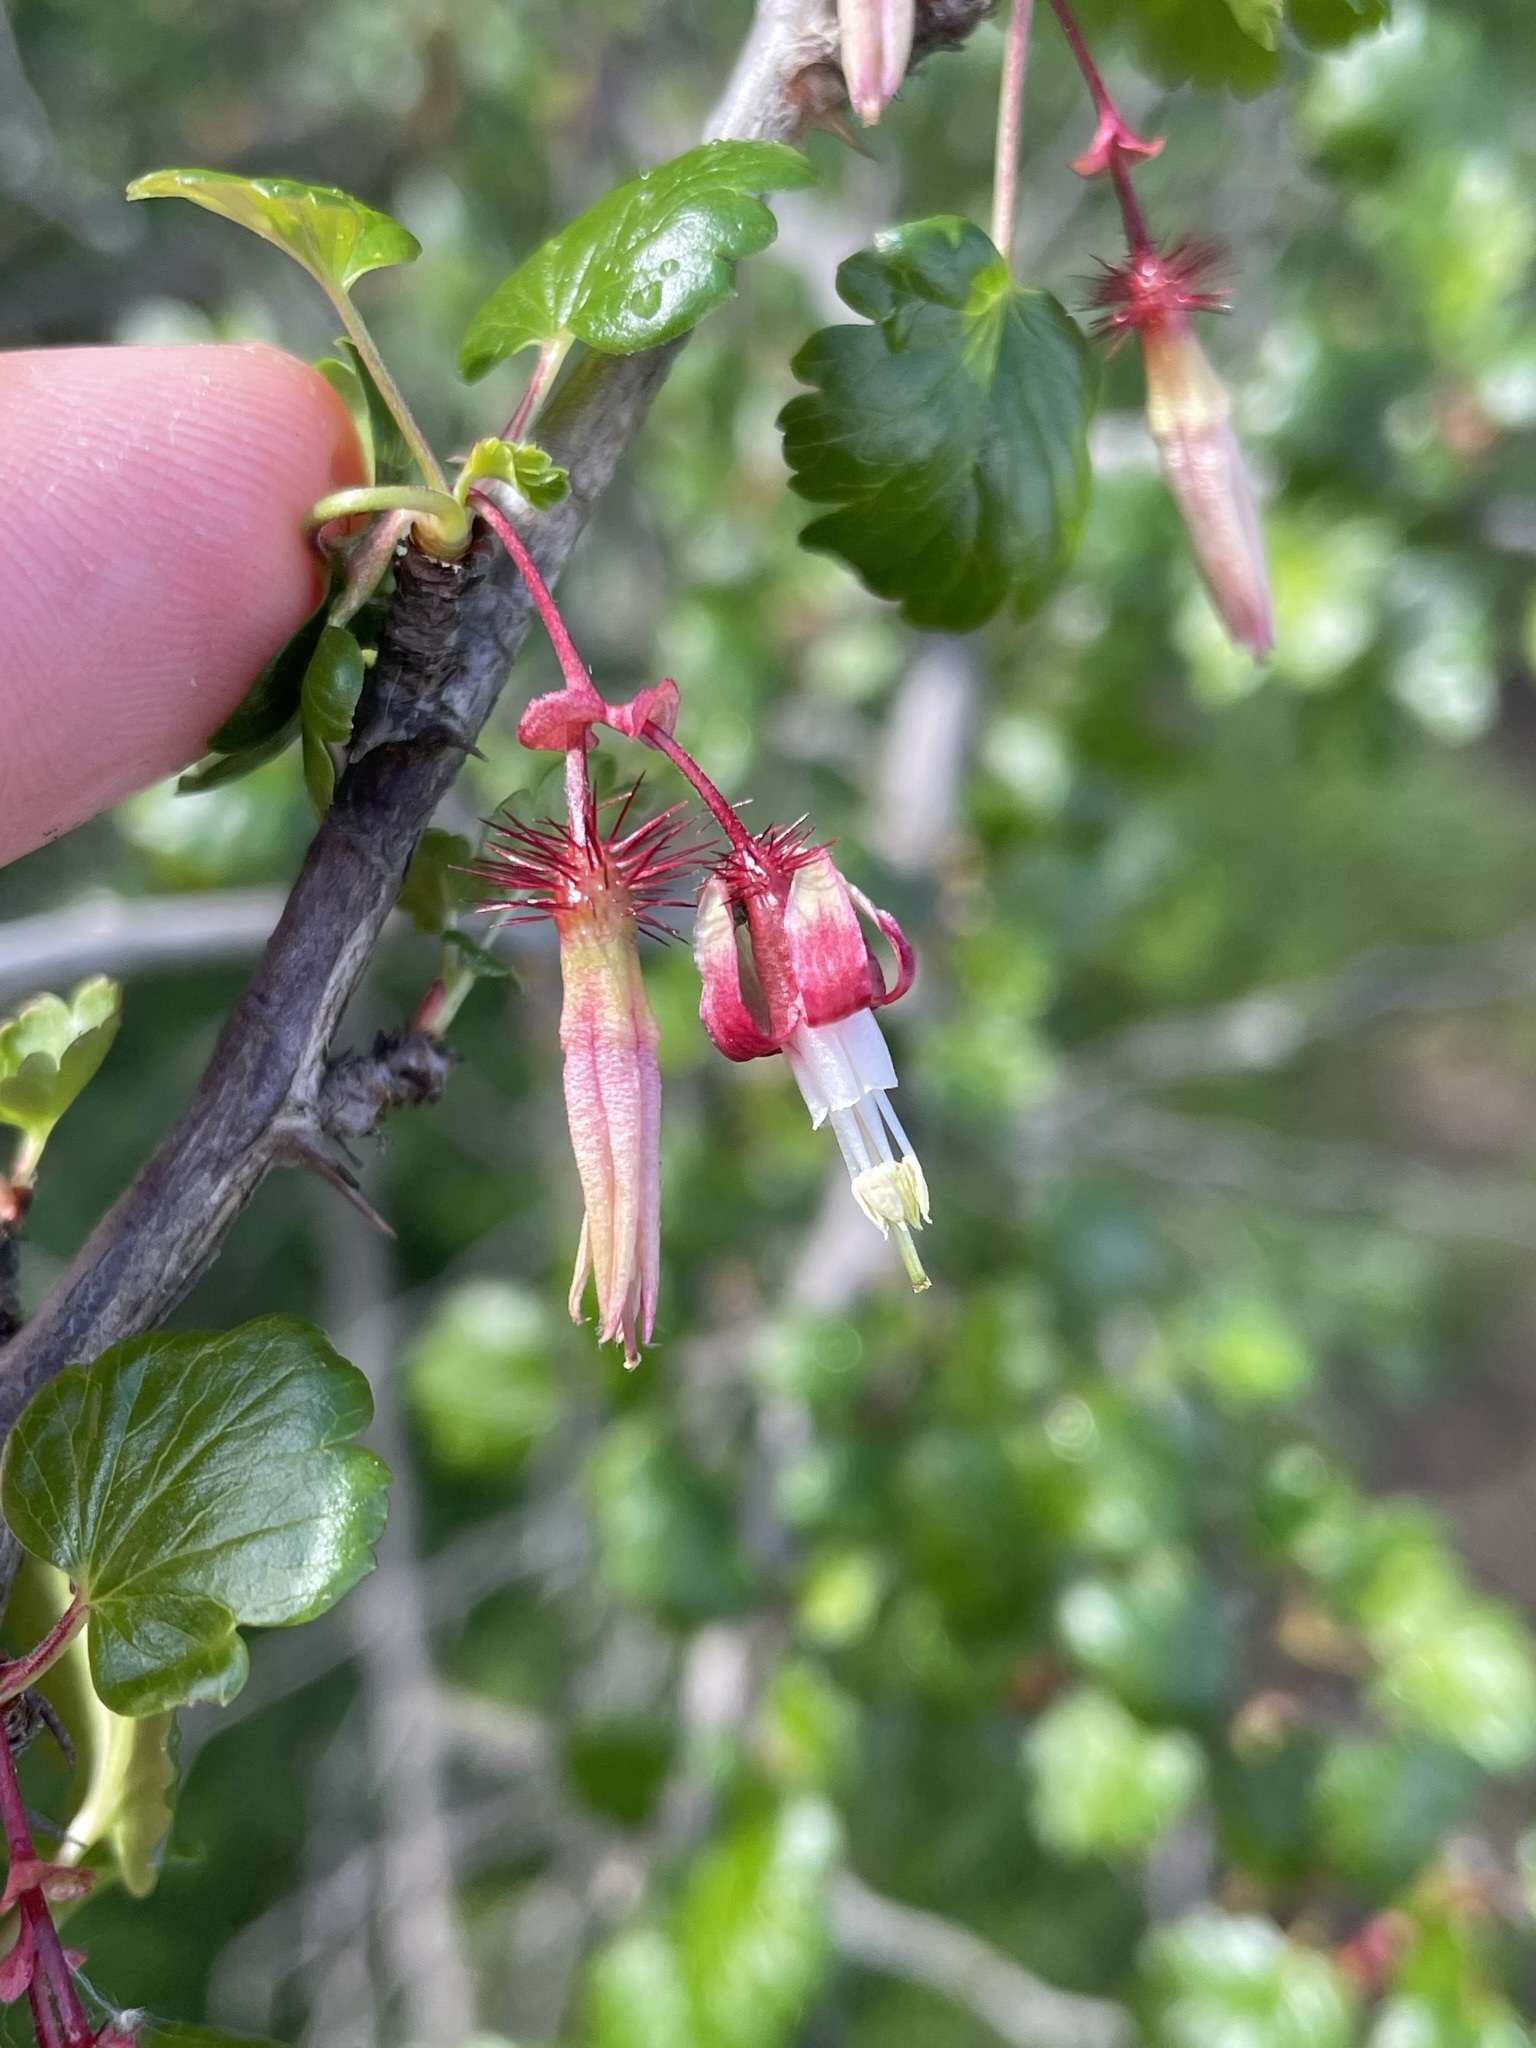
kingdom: Plantae
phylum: Tracheophyta
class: Magnoliopsida
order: Saxifragales
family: Grossulariaceae
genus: Ribes
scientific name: Ribes californicum
